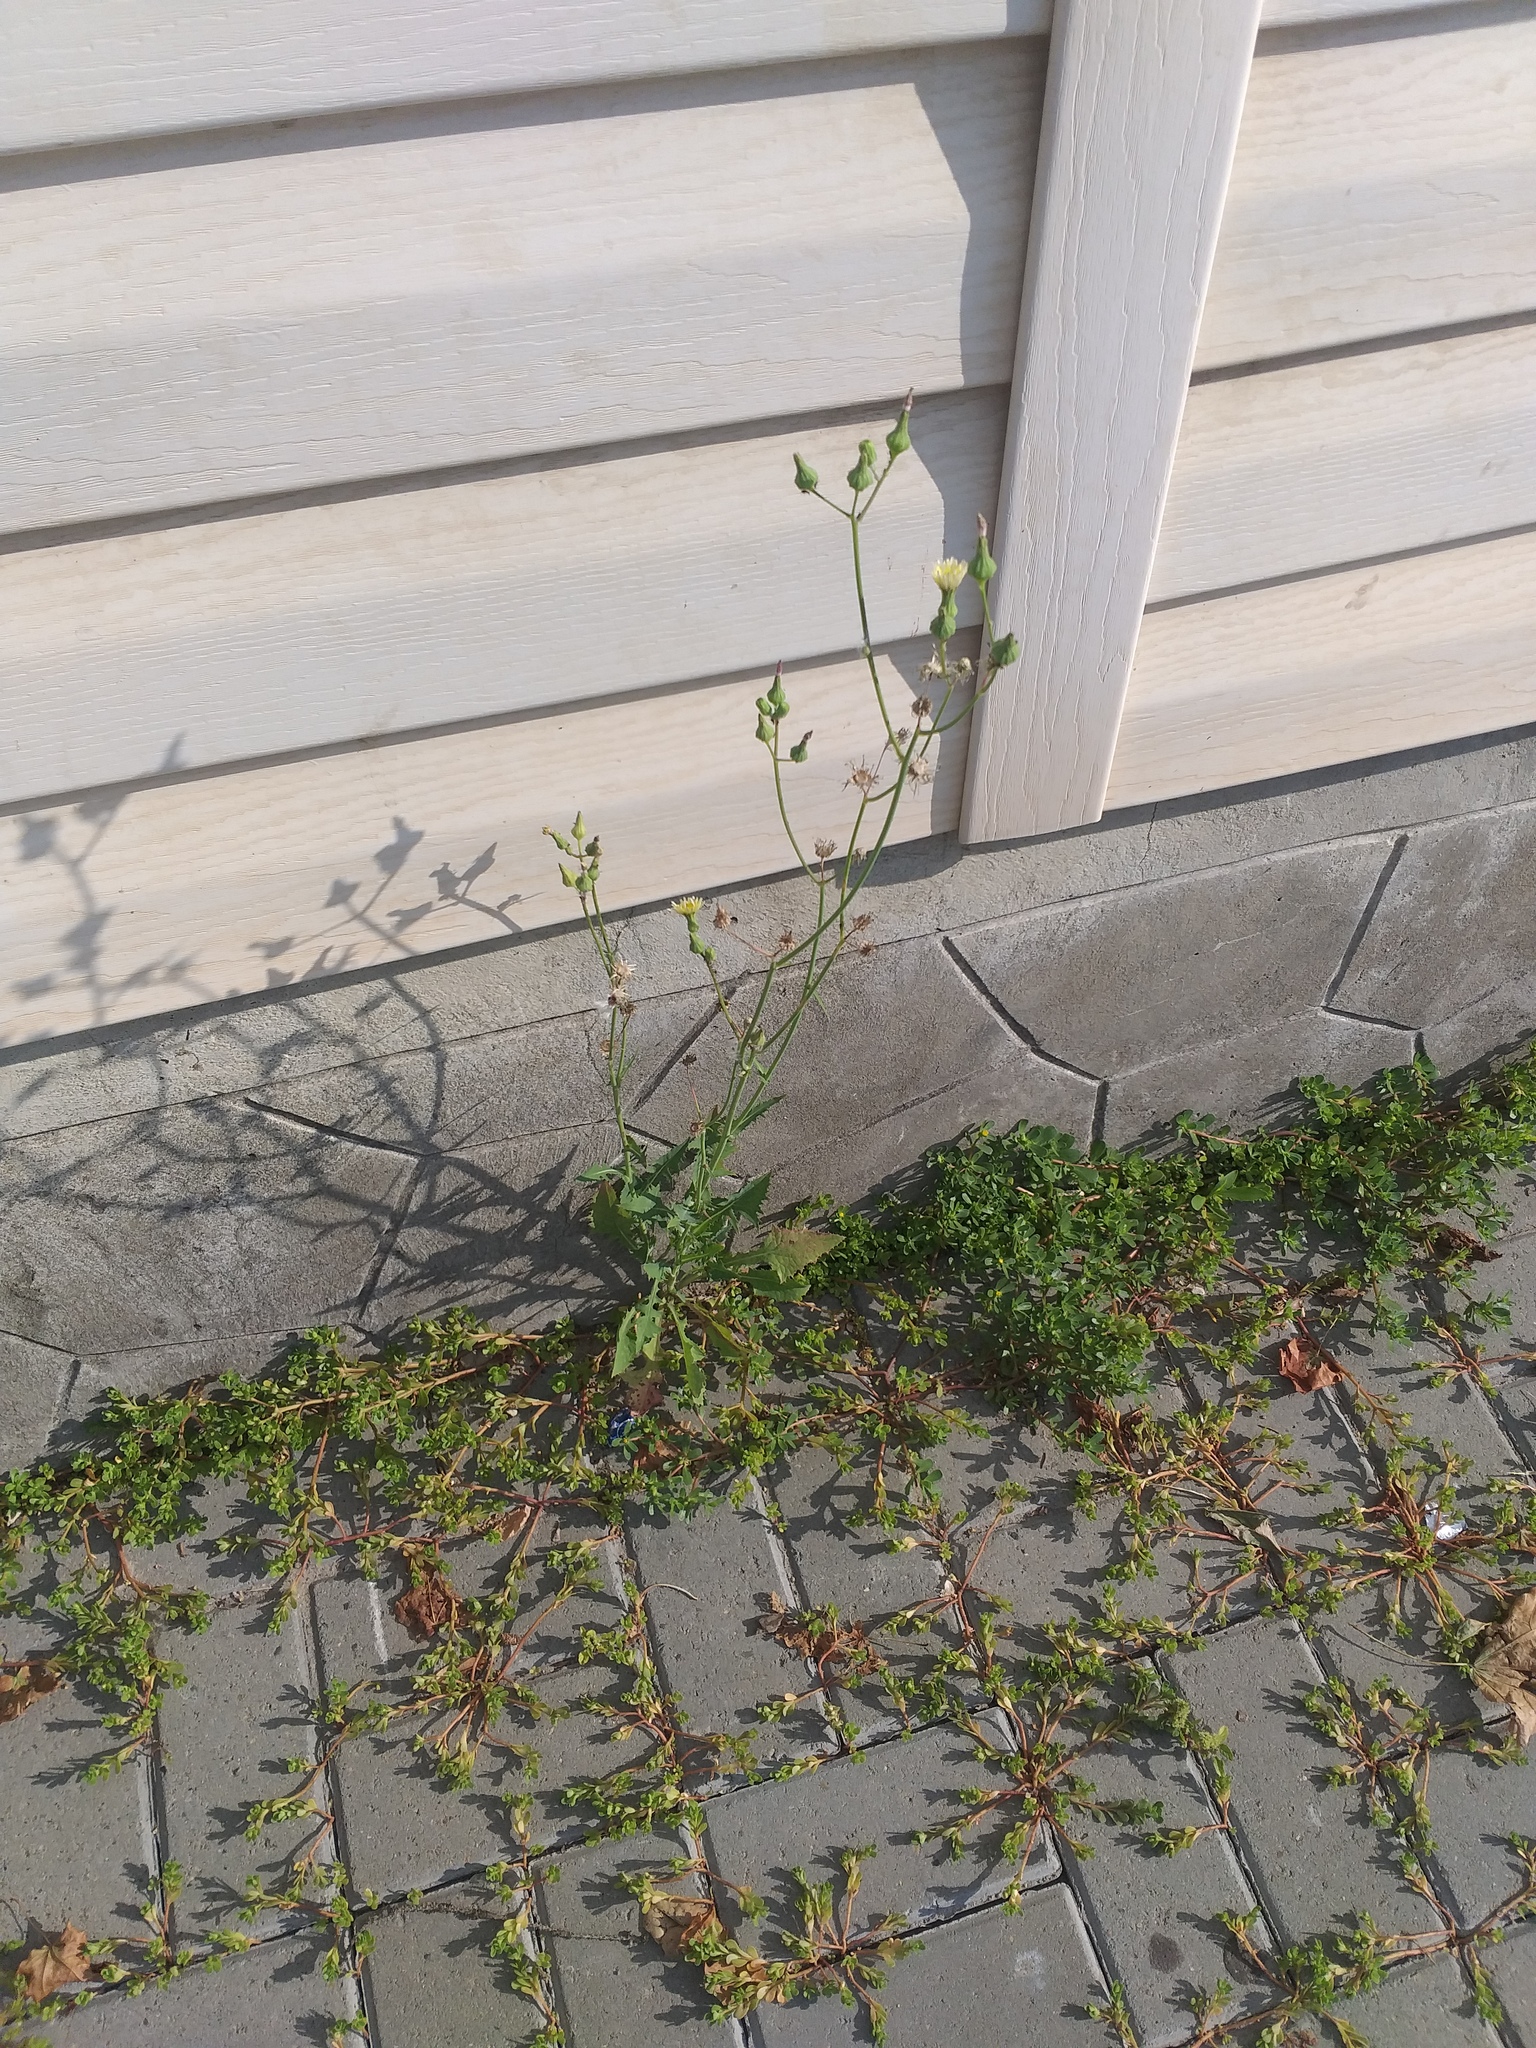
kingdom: Plantae
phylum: Tracheophyta
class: Magnoliopsida
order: Asterales
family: Asteraceae
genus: Sonchus
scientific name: Sonchus oleraceus
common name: Common sowthistle
